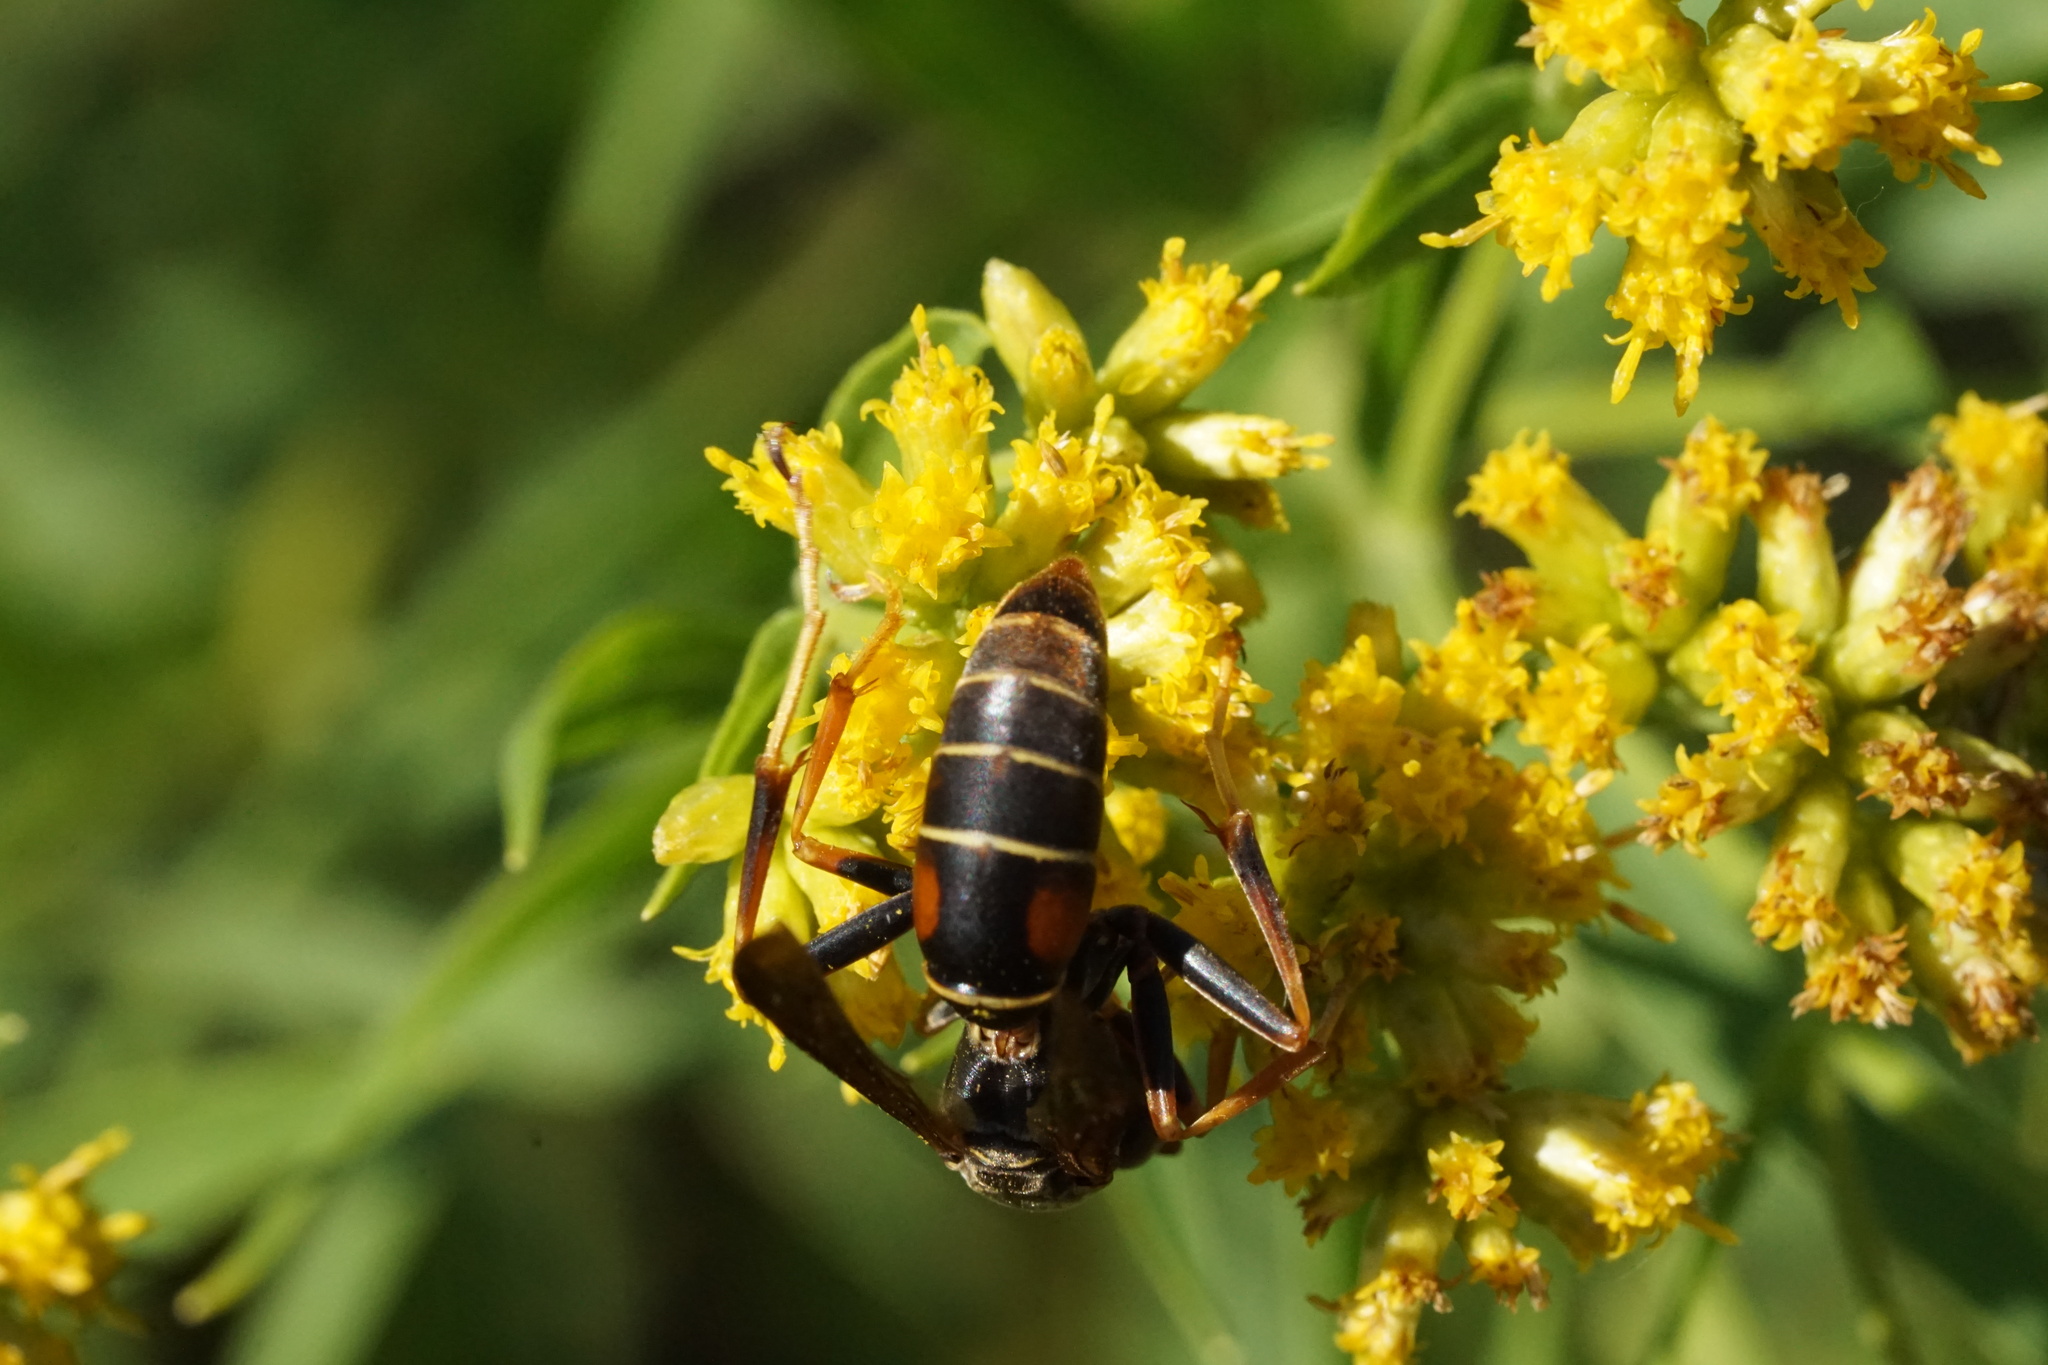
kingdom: Animalia
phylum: Arthropoda
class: Insecta
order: Hymenoptera
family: Eumenidae
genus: Polistes
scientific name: Polistes fuscatus
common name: Dark paper wasp
